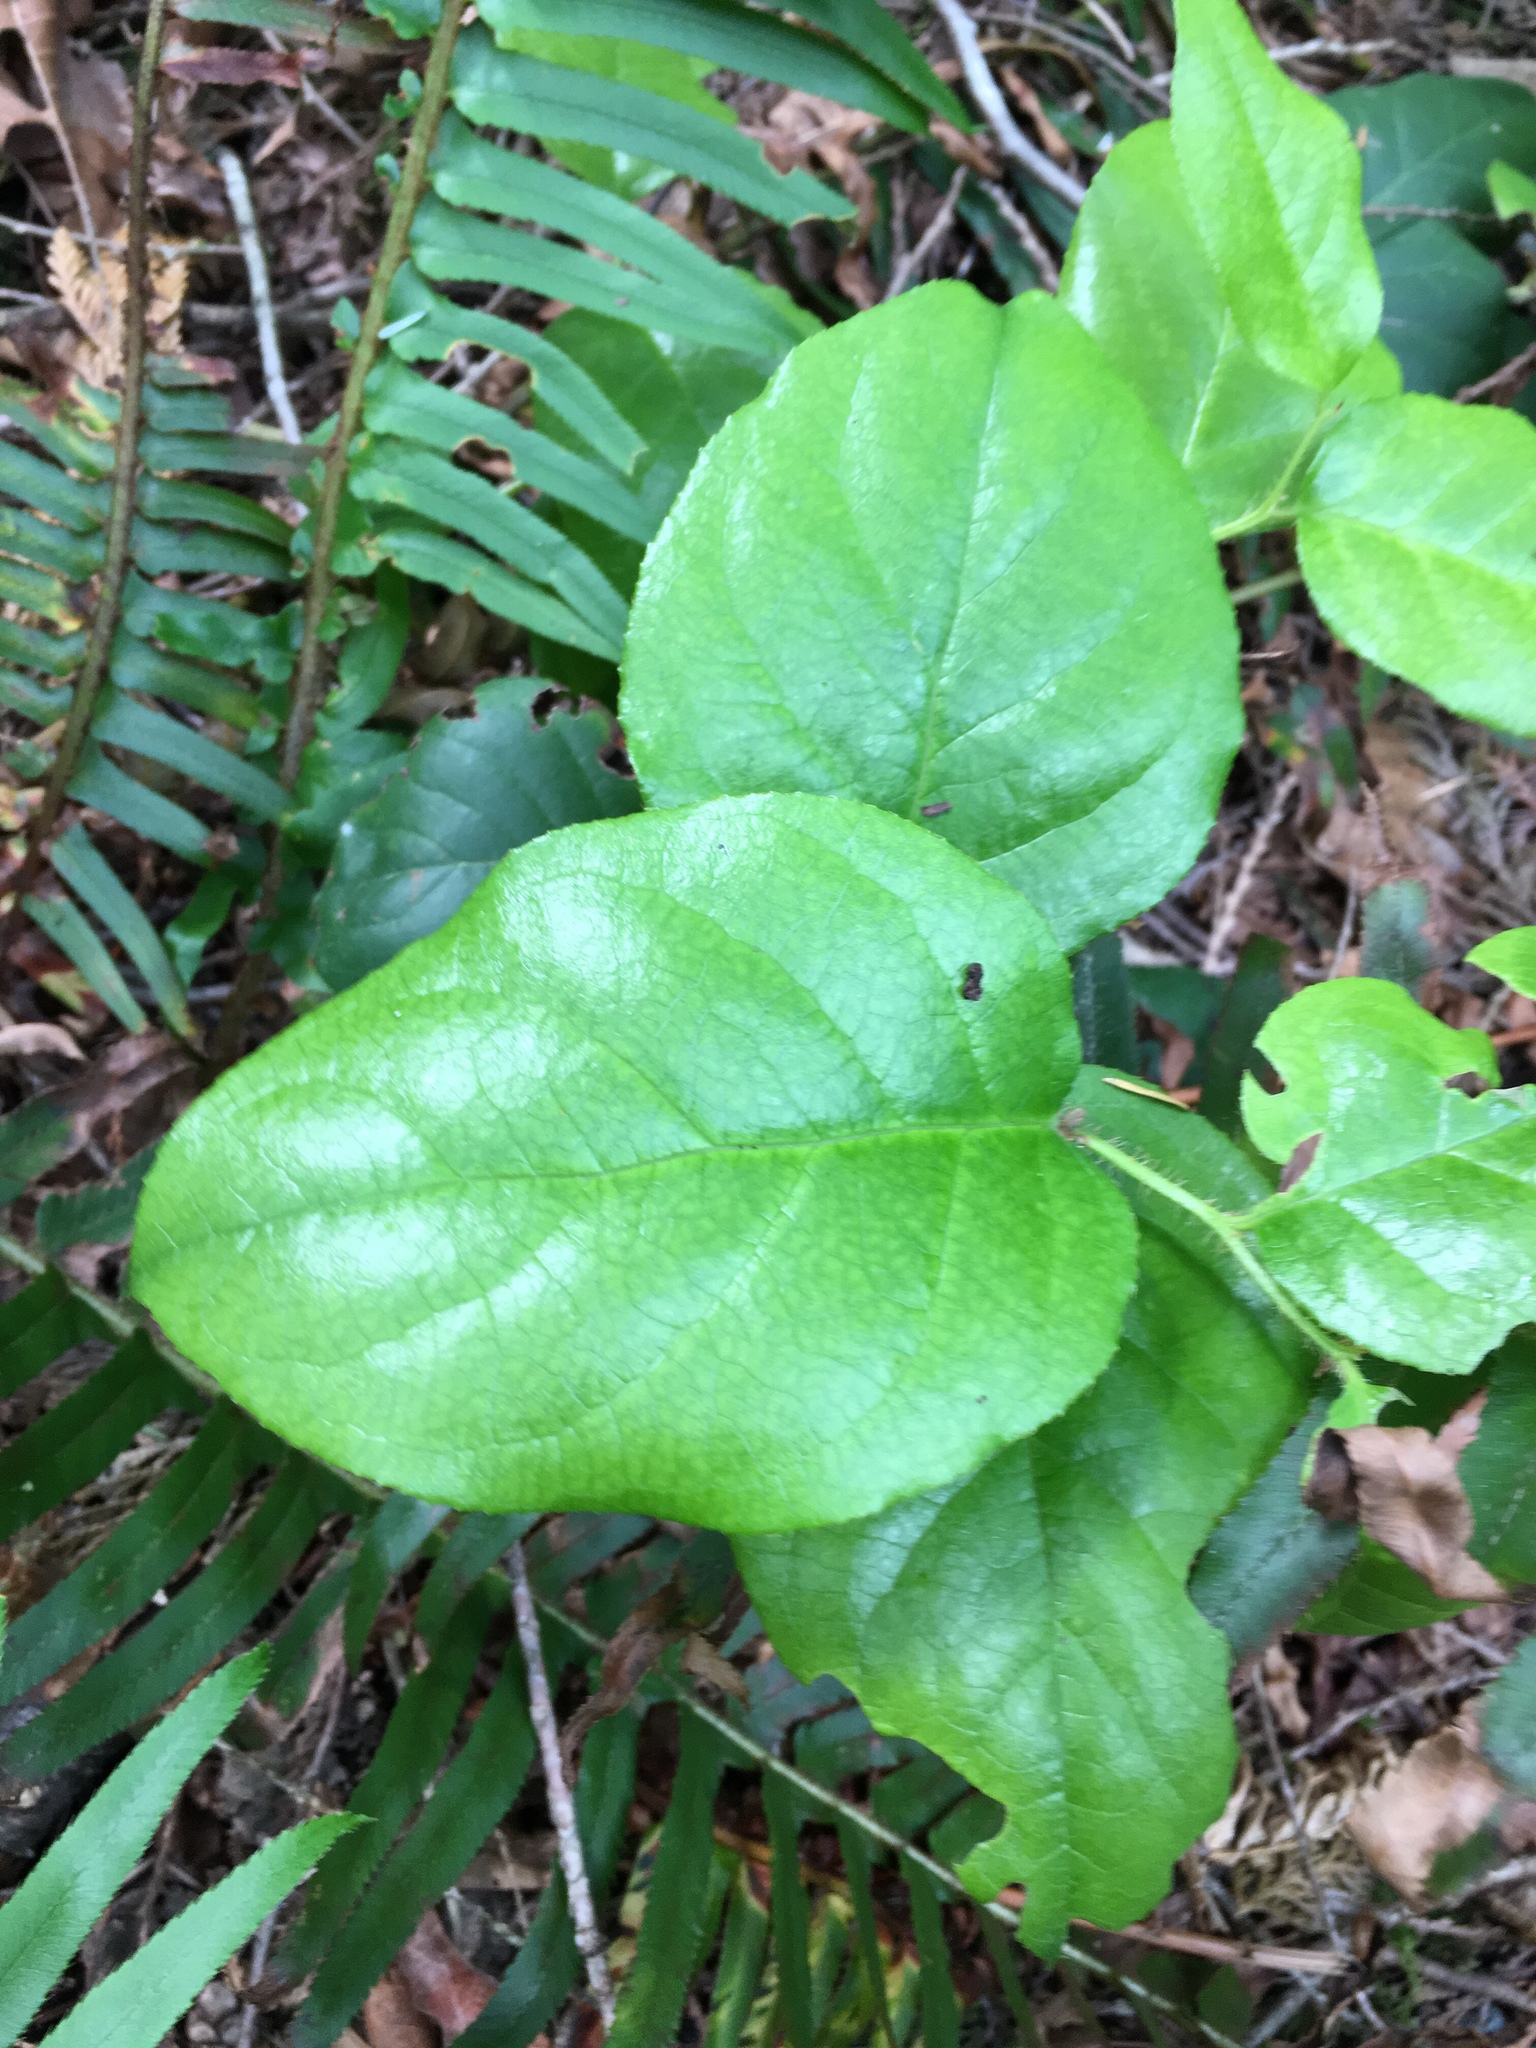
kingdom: Plantae
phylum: Tracheophyta
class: Magnoliopsida
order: Ericales
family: Ericaceae
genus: Gaultheria
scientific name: Gaultheria shallon
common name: Shallon
